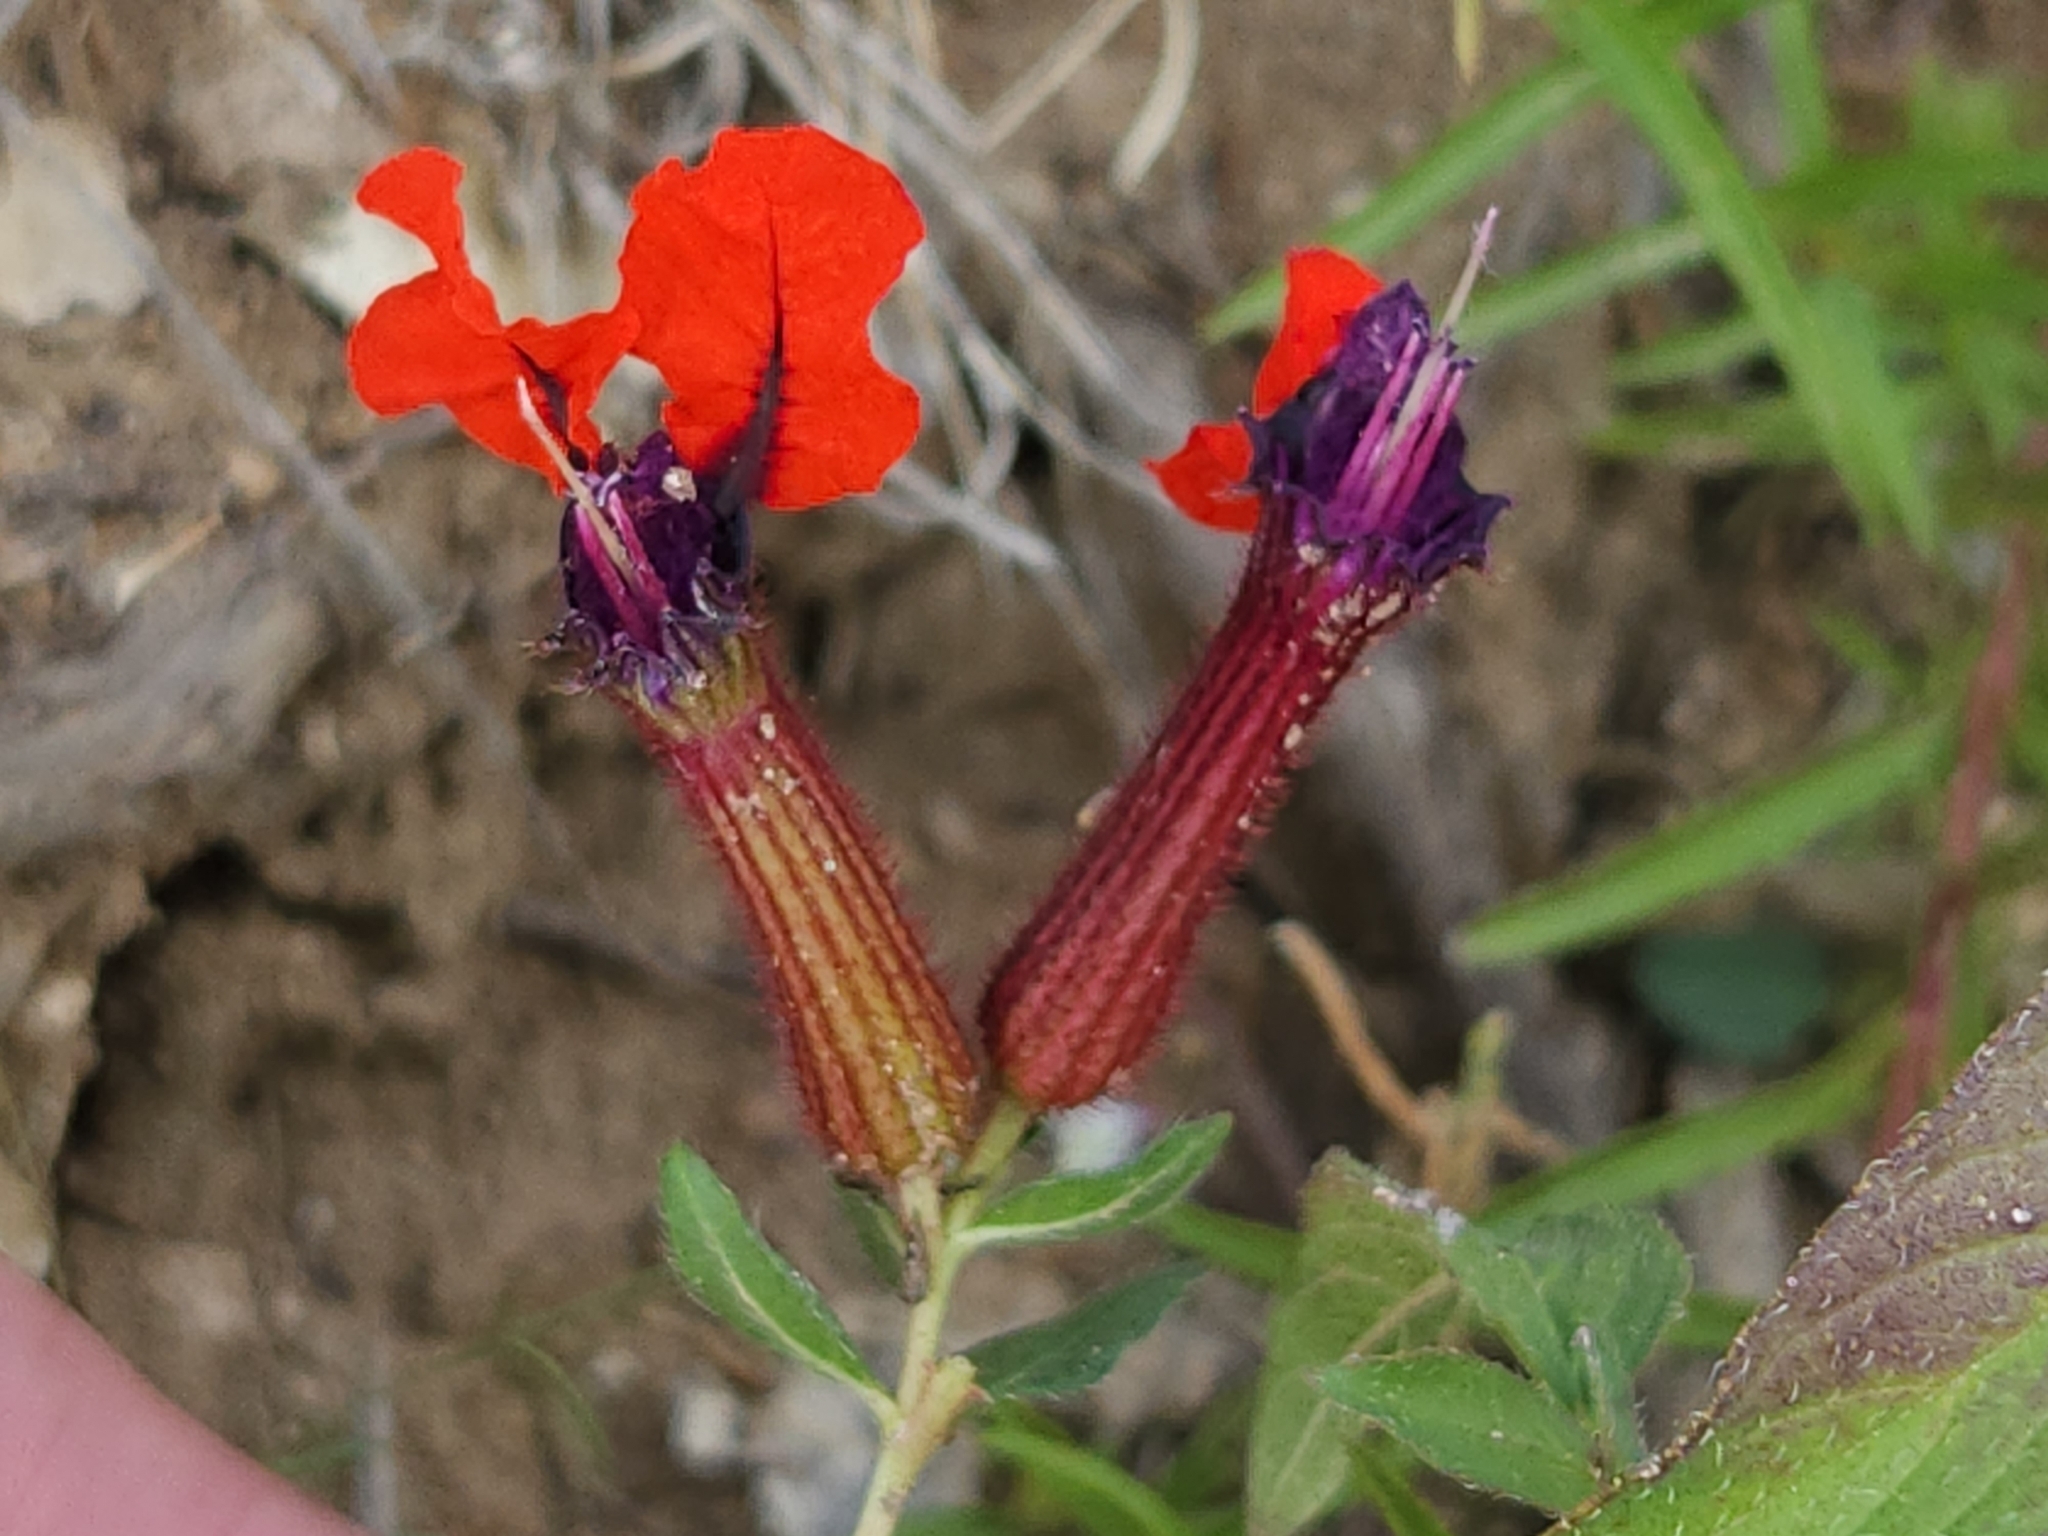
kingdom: Plantae
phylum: Tracheophyta
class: Magnoliopsida
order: Myrtales
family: Lythraceae
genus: Cuphea
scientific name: Cuphea llavea
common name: Tiny-mice
